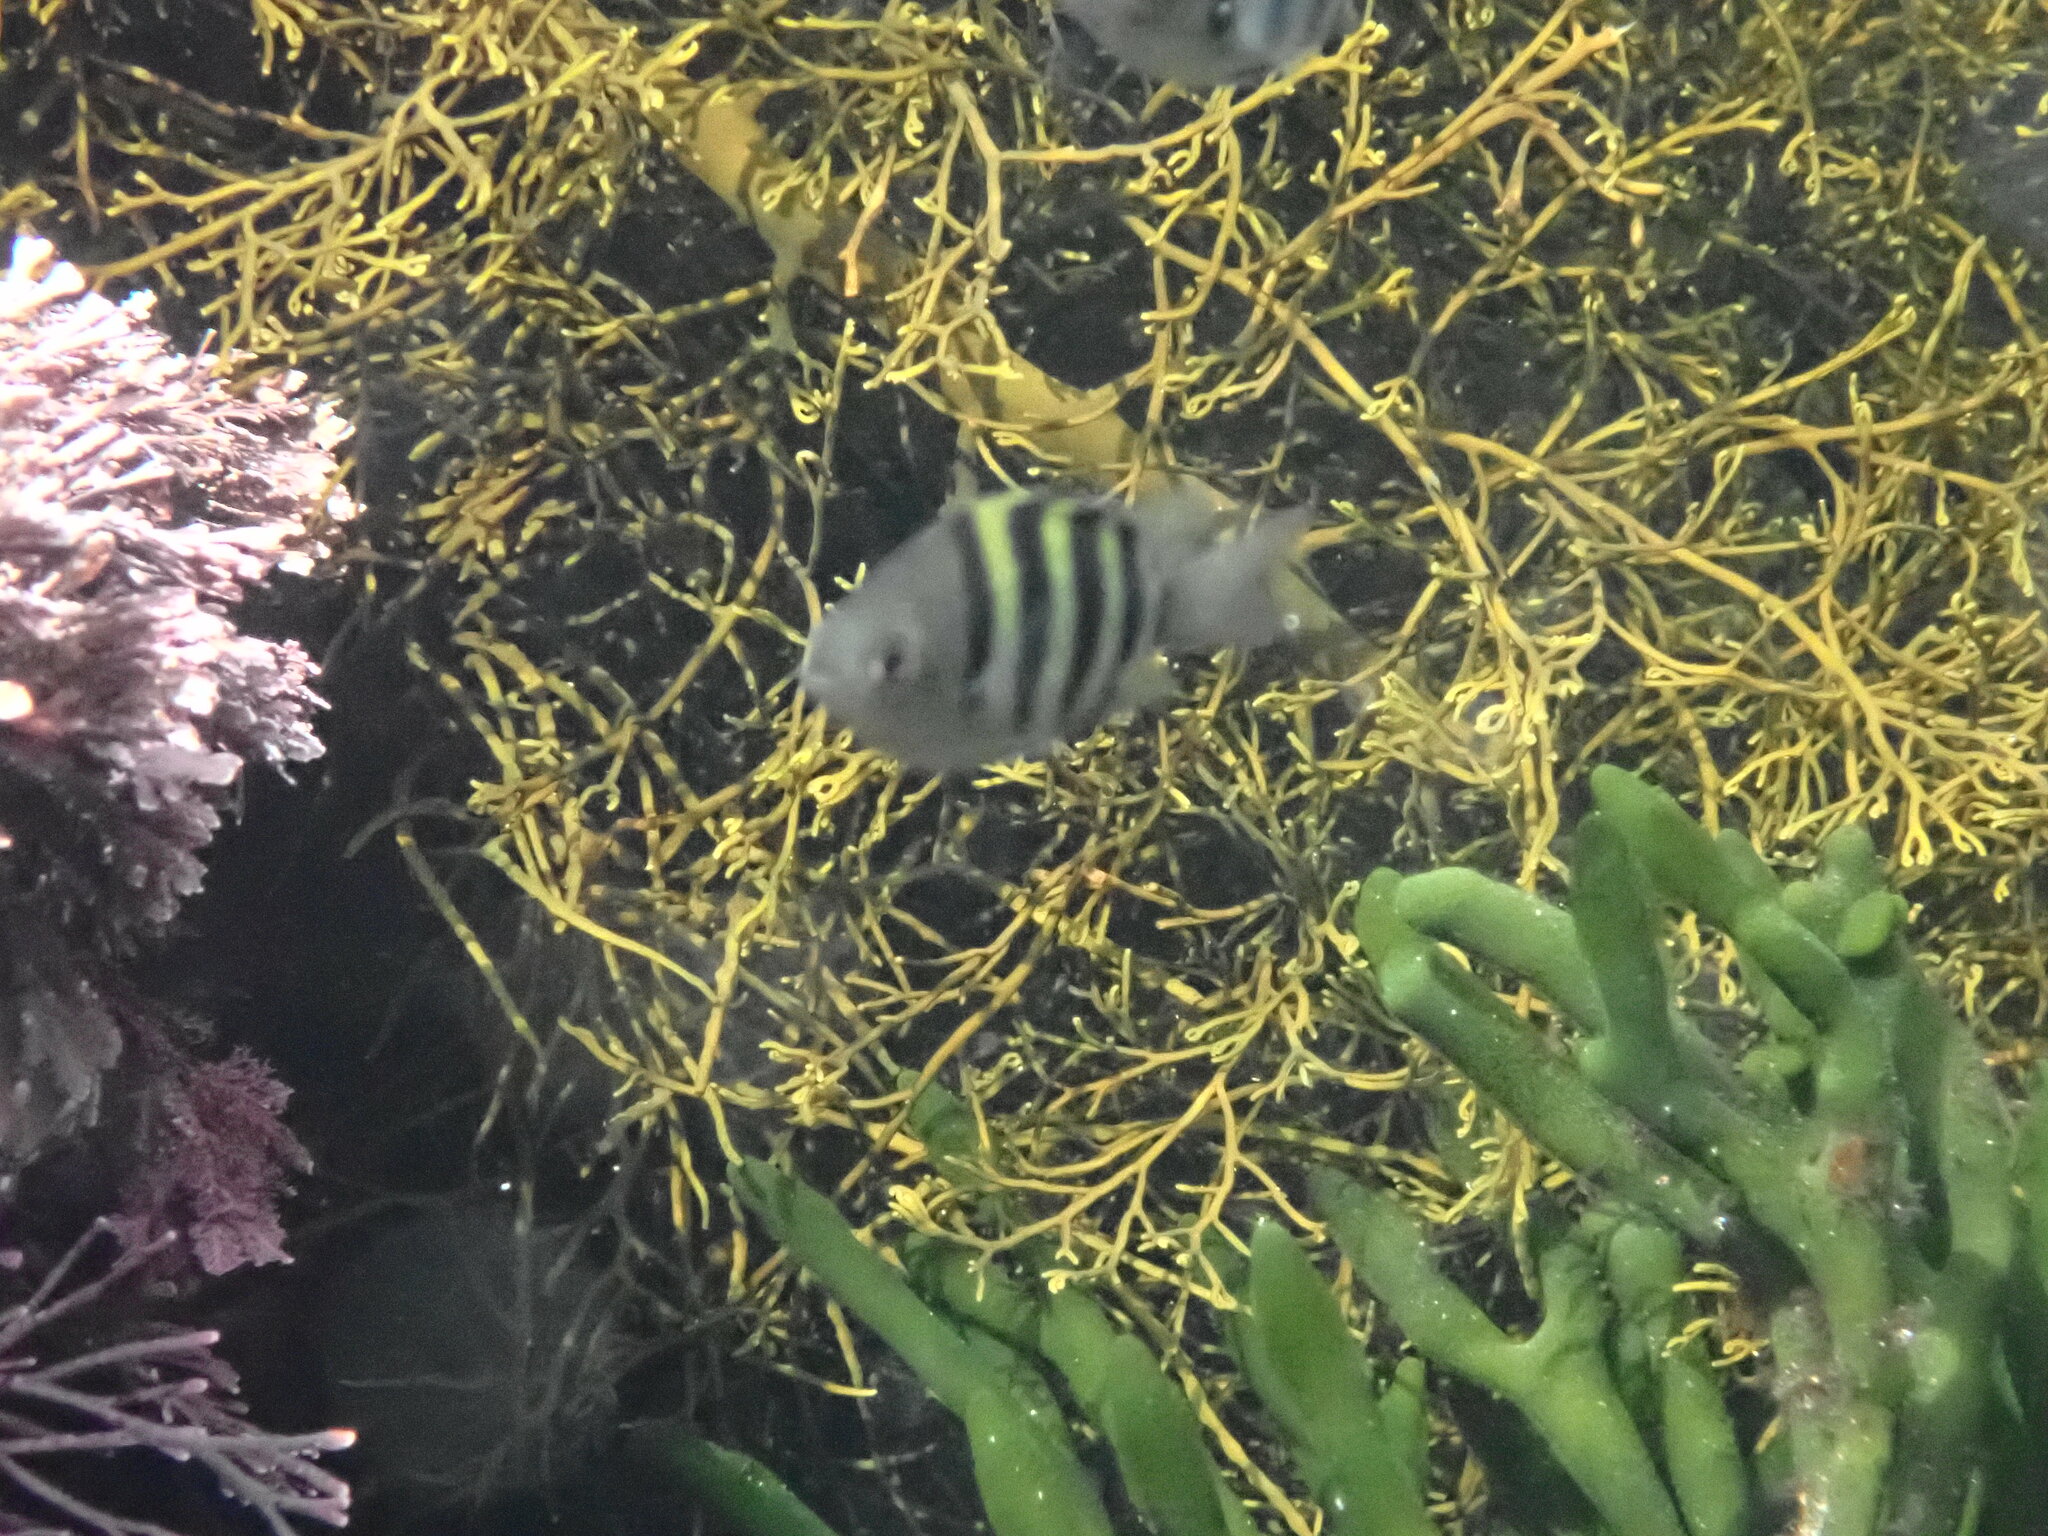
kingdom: Animalia
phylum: Chordata
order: Perciformes
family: Pomacentridae
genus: Abudefduf
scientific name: Abudefduf vaigiensis
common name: Indo-pacific sergeant
